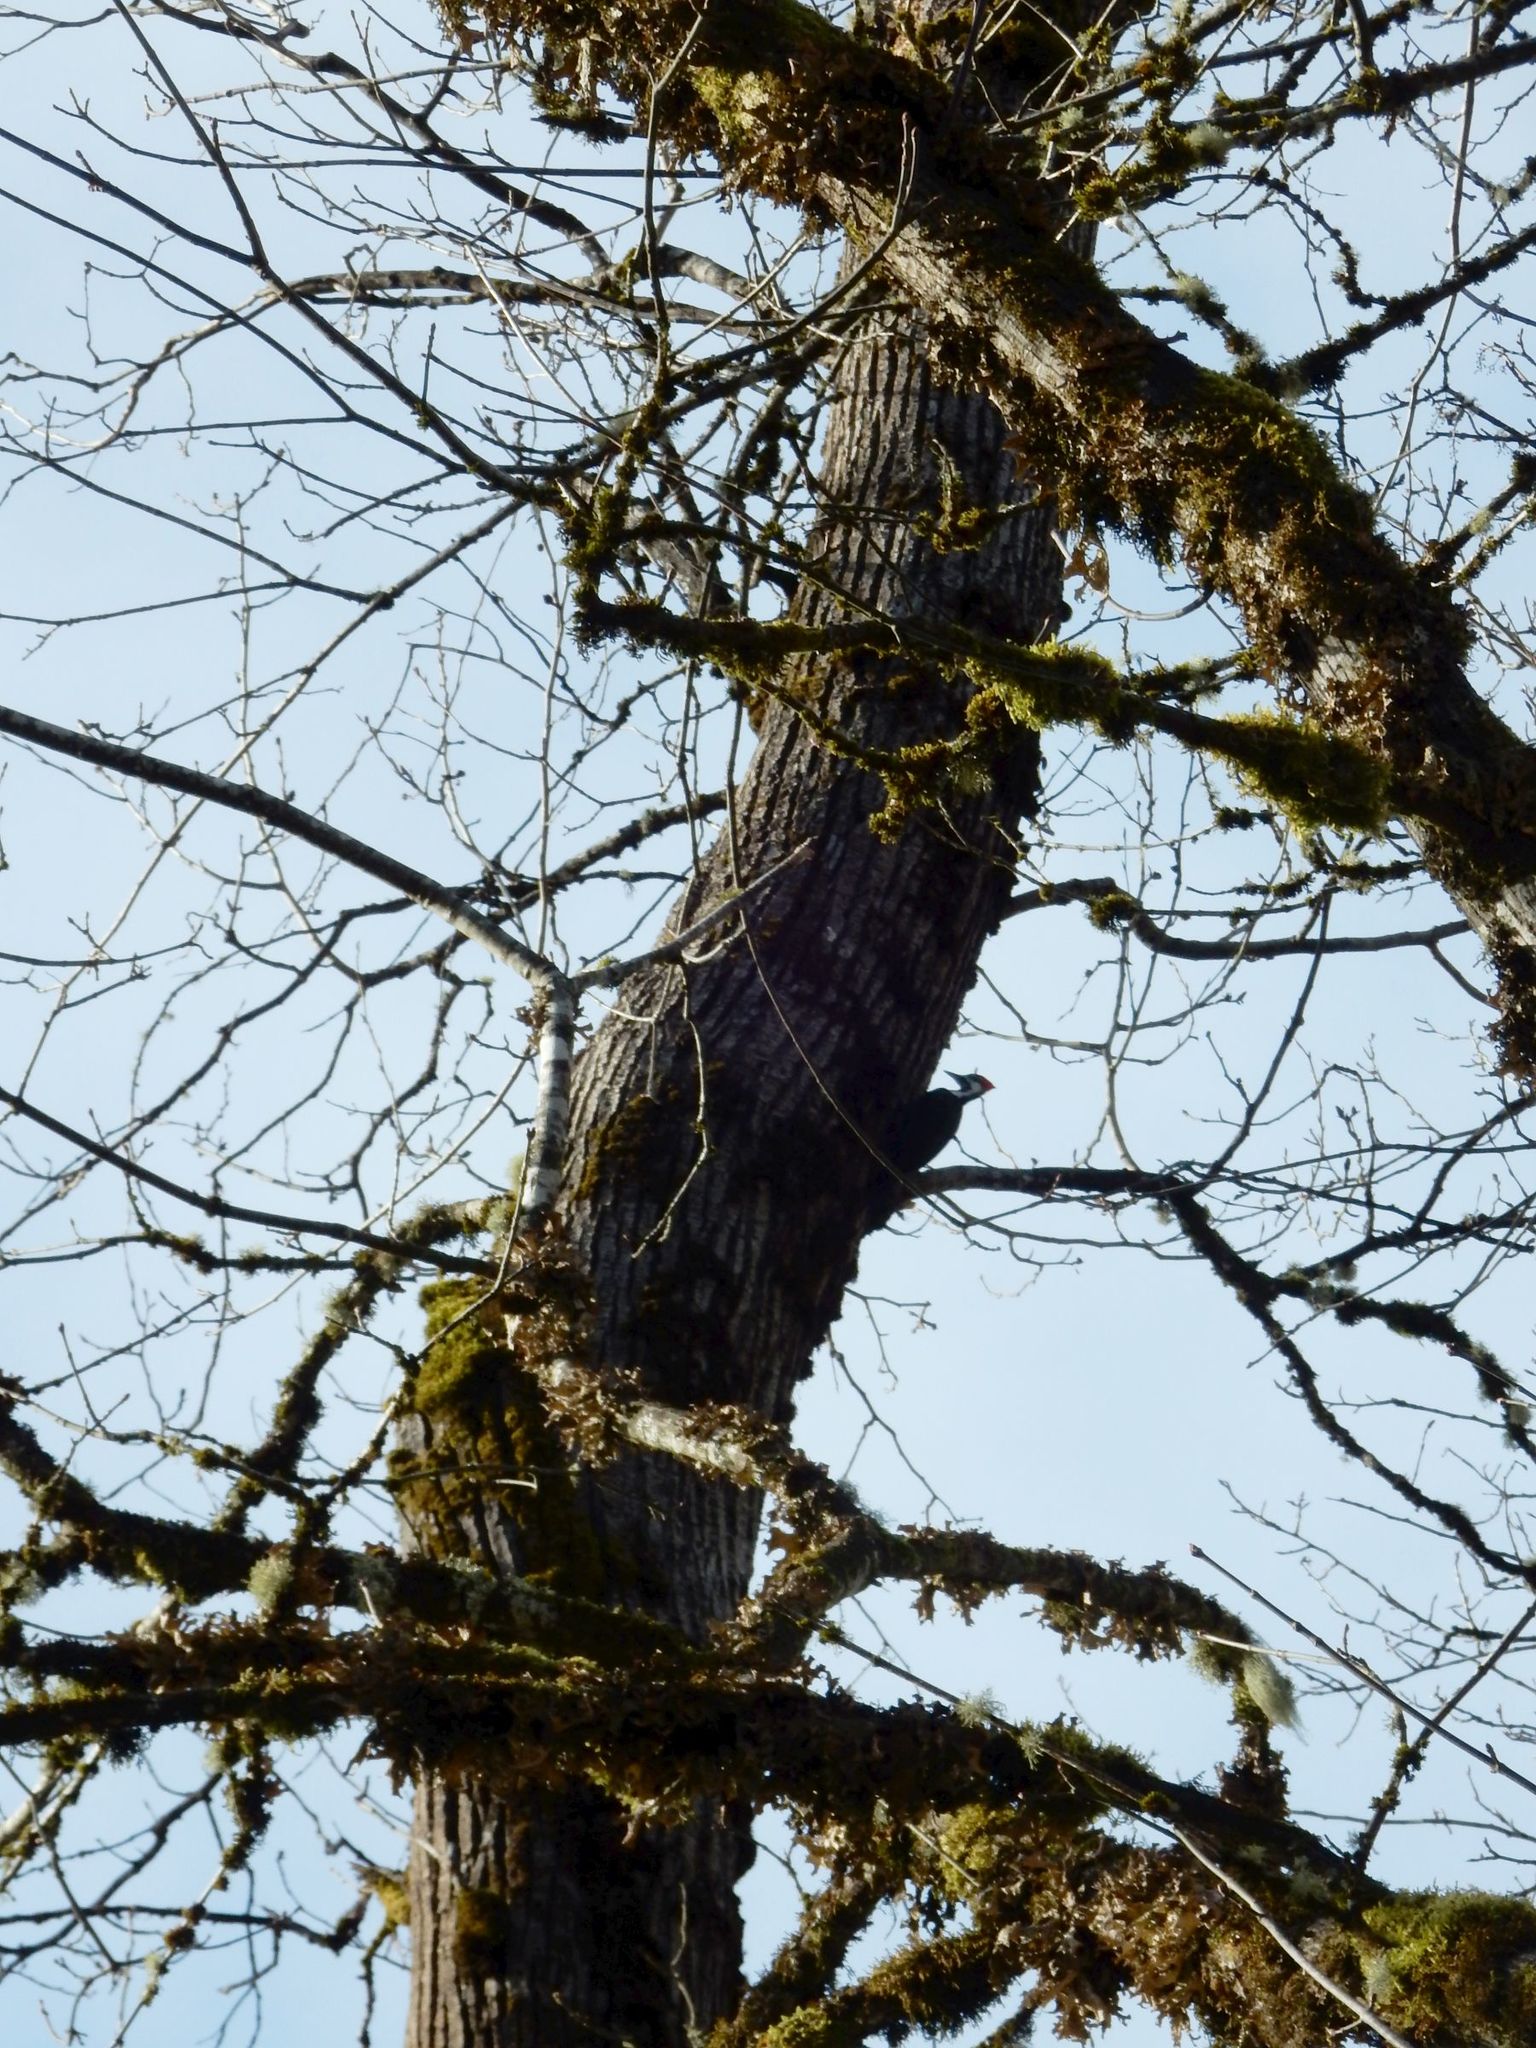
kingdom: Animalia
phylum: Chordata
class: Aves
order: Piciformes
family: Picidae
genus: Dryocopus
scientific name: Dryocopus pileatus
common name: Pileated woodpecker
